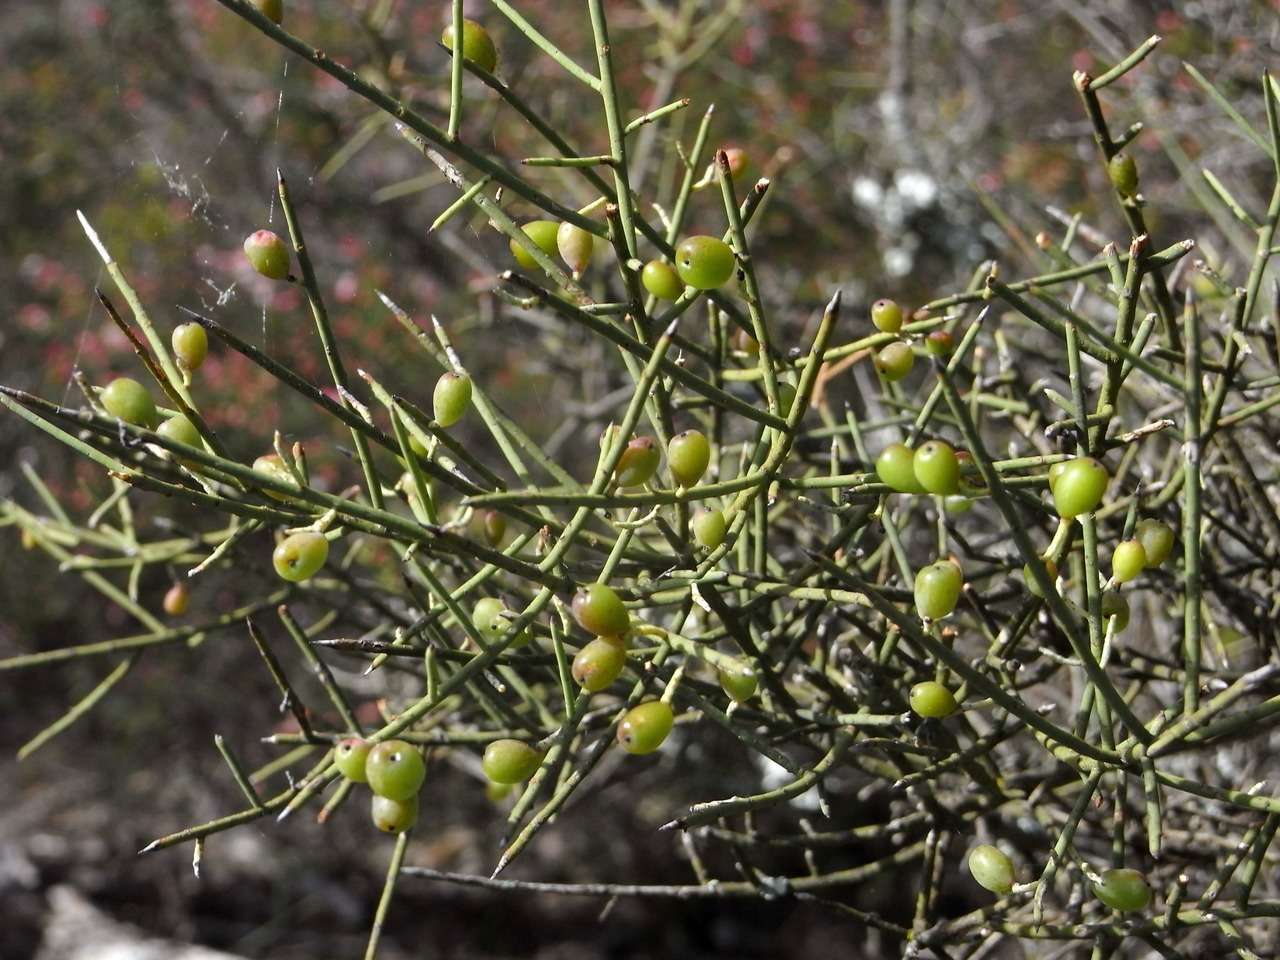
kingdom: Plantae
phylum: Tracheophyta
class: Magnoliopsida
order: Santalales
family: Amphorogynaceae
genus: Leptomeria
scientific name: Leptomeria aphylla
